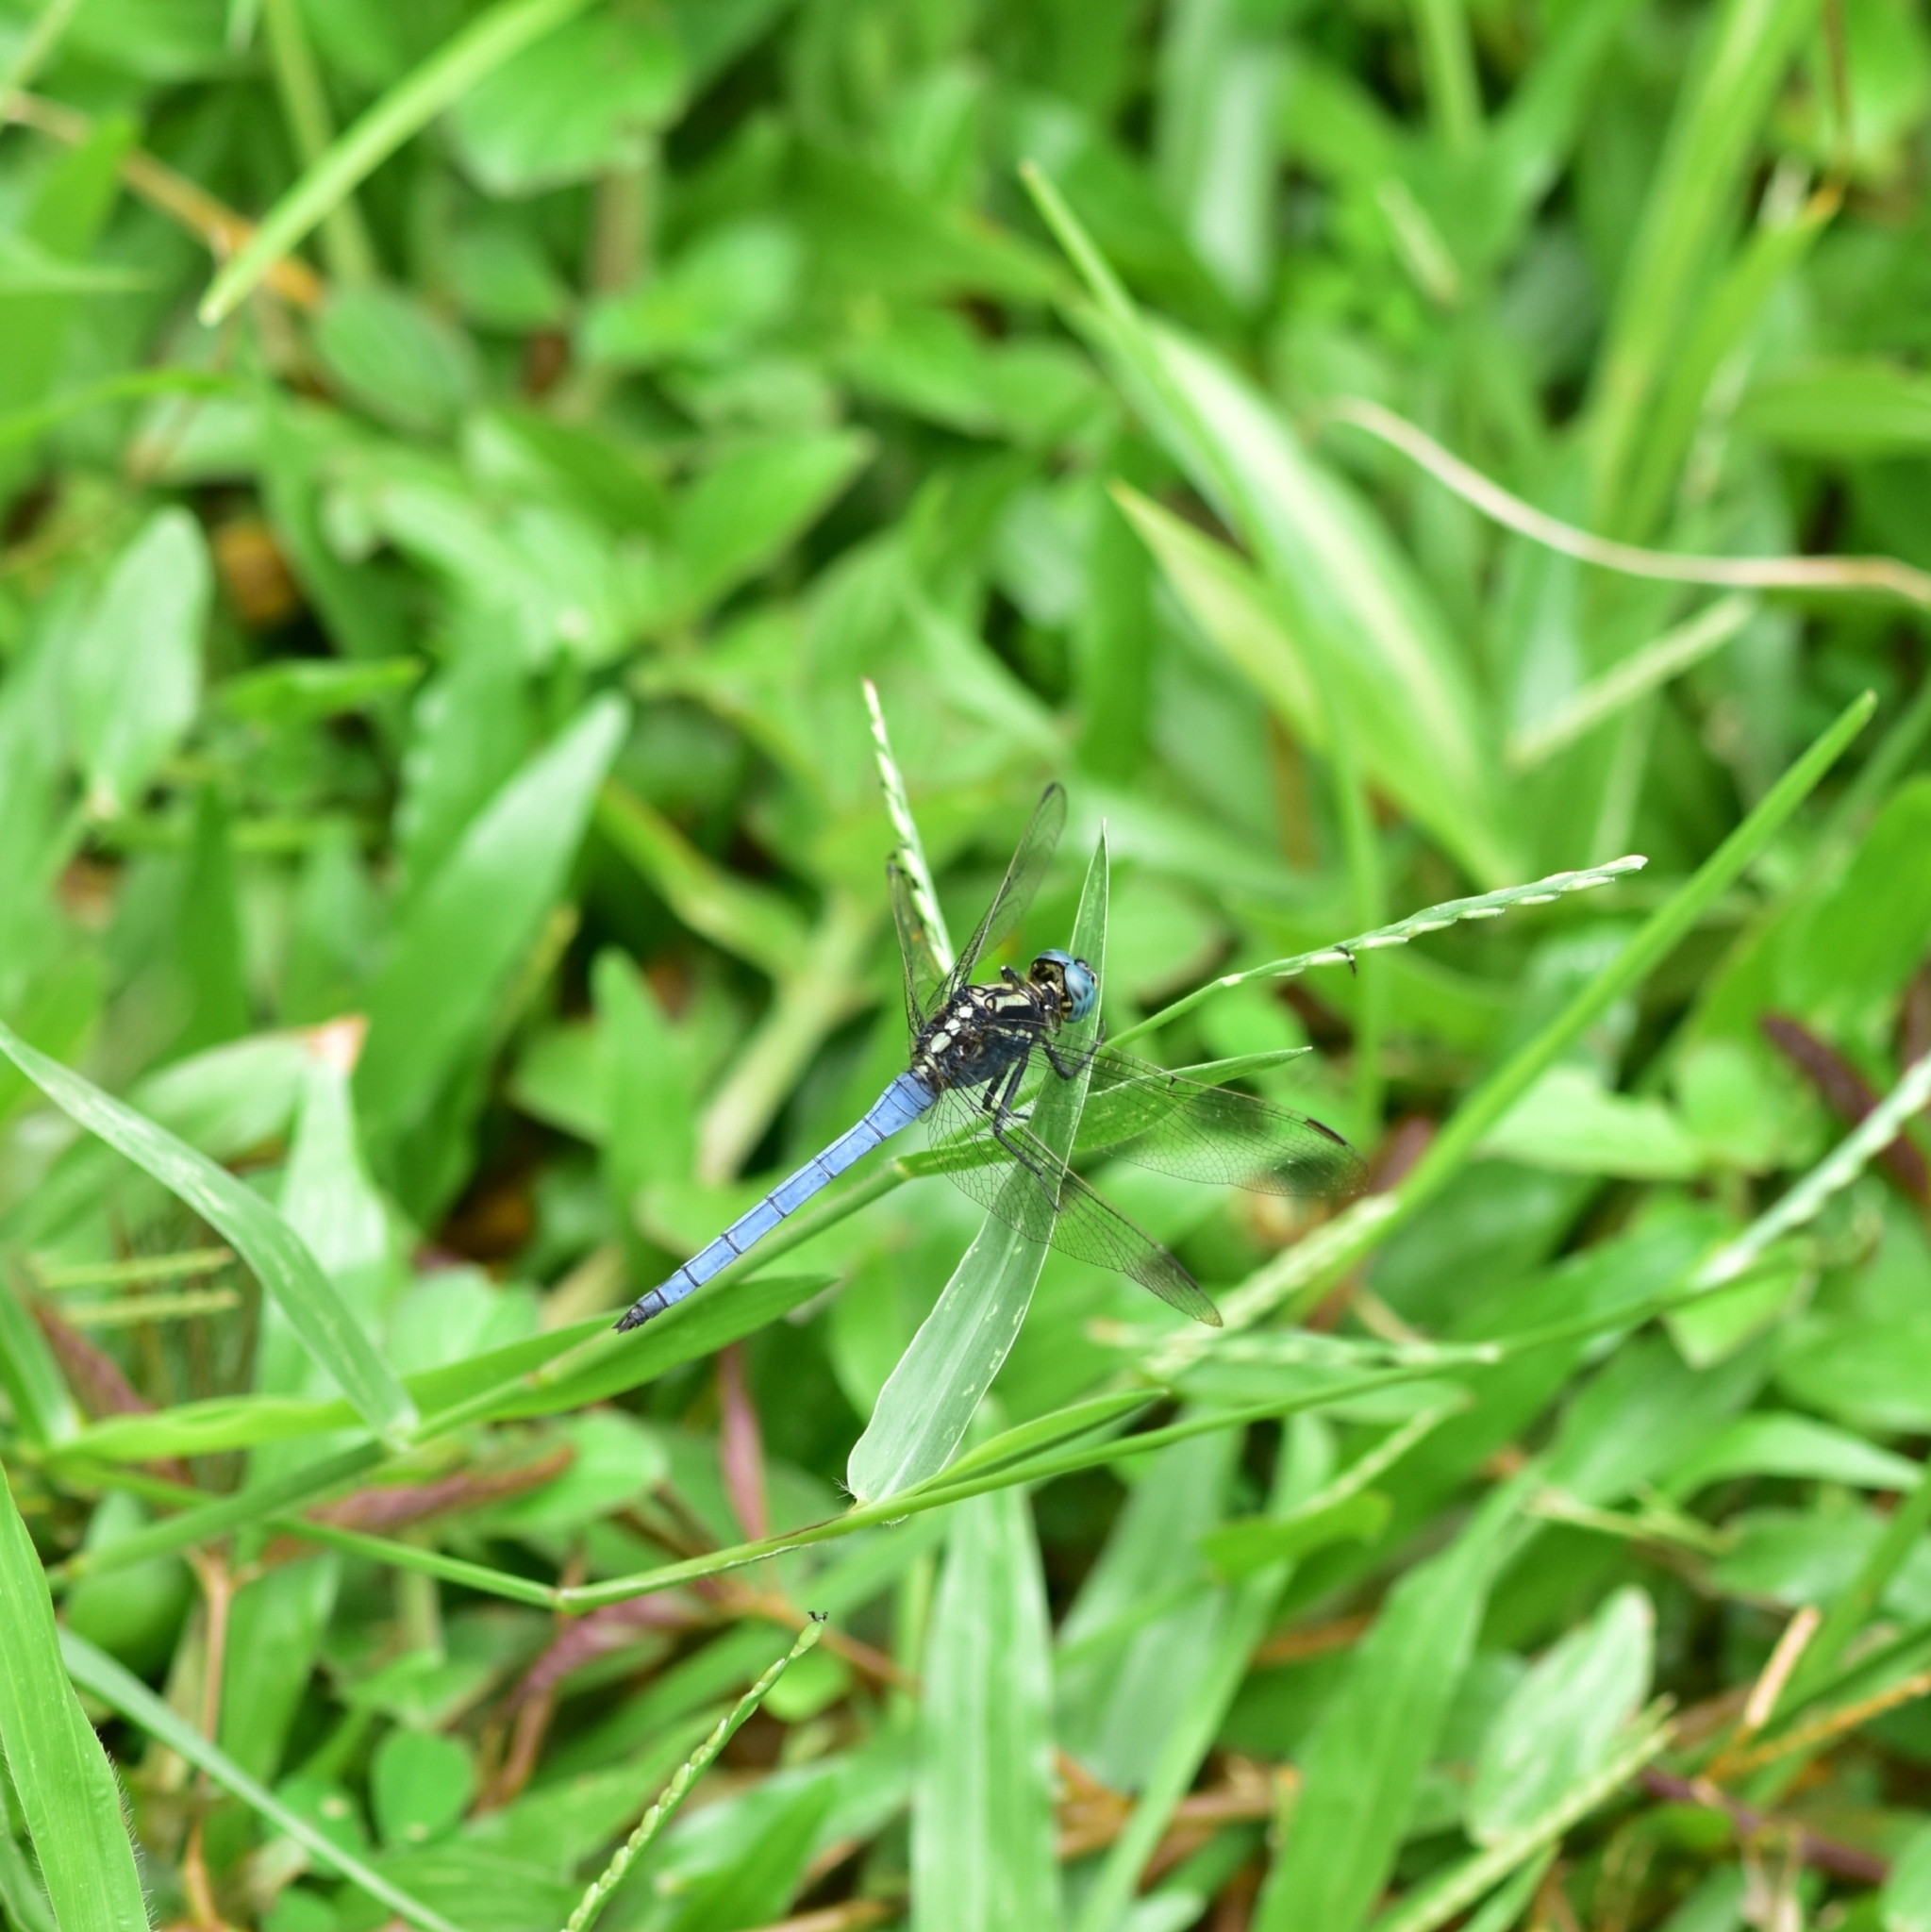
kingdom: Animalia
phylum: Arthropoda
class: Insecta
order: Odonata
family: Libellulidae
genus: Orthetrum
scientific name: Orthetrum luzonicum
